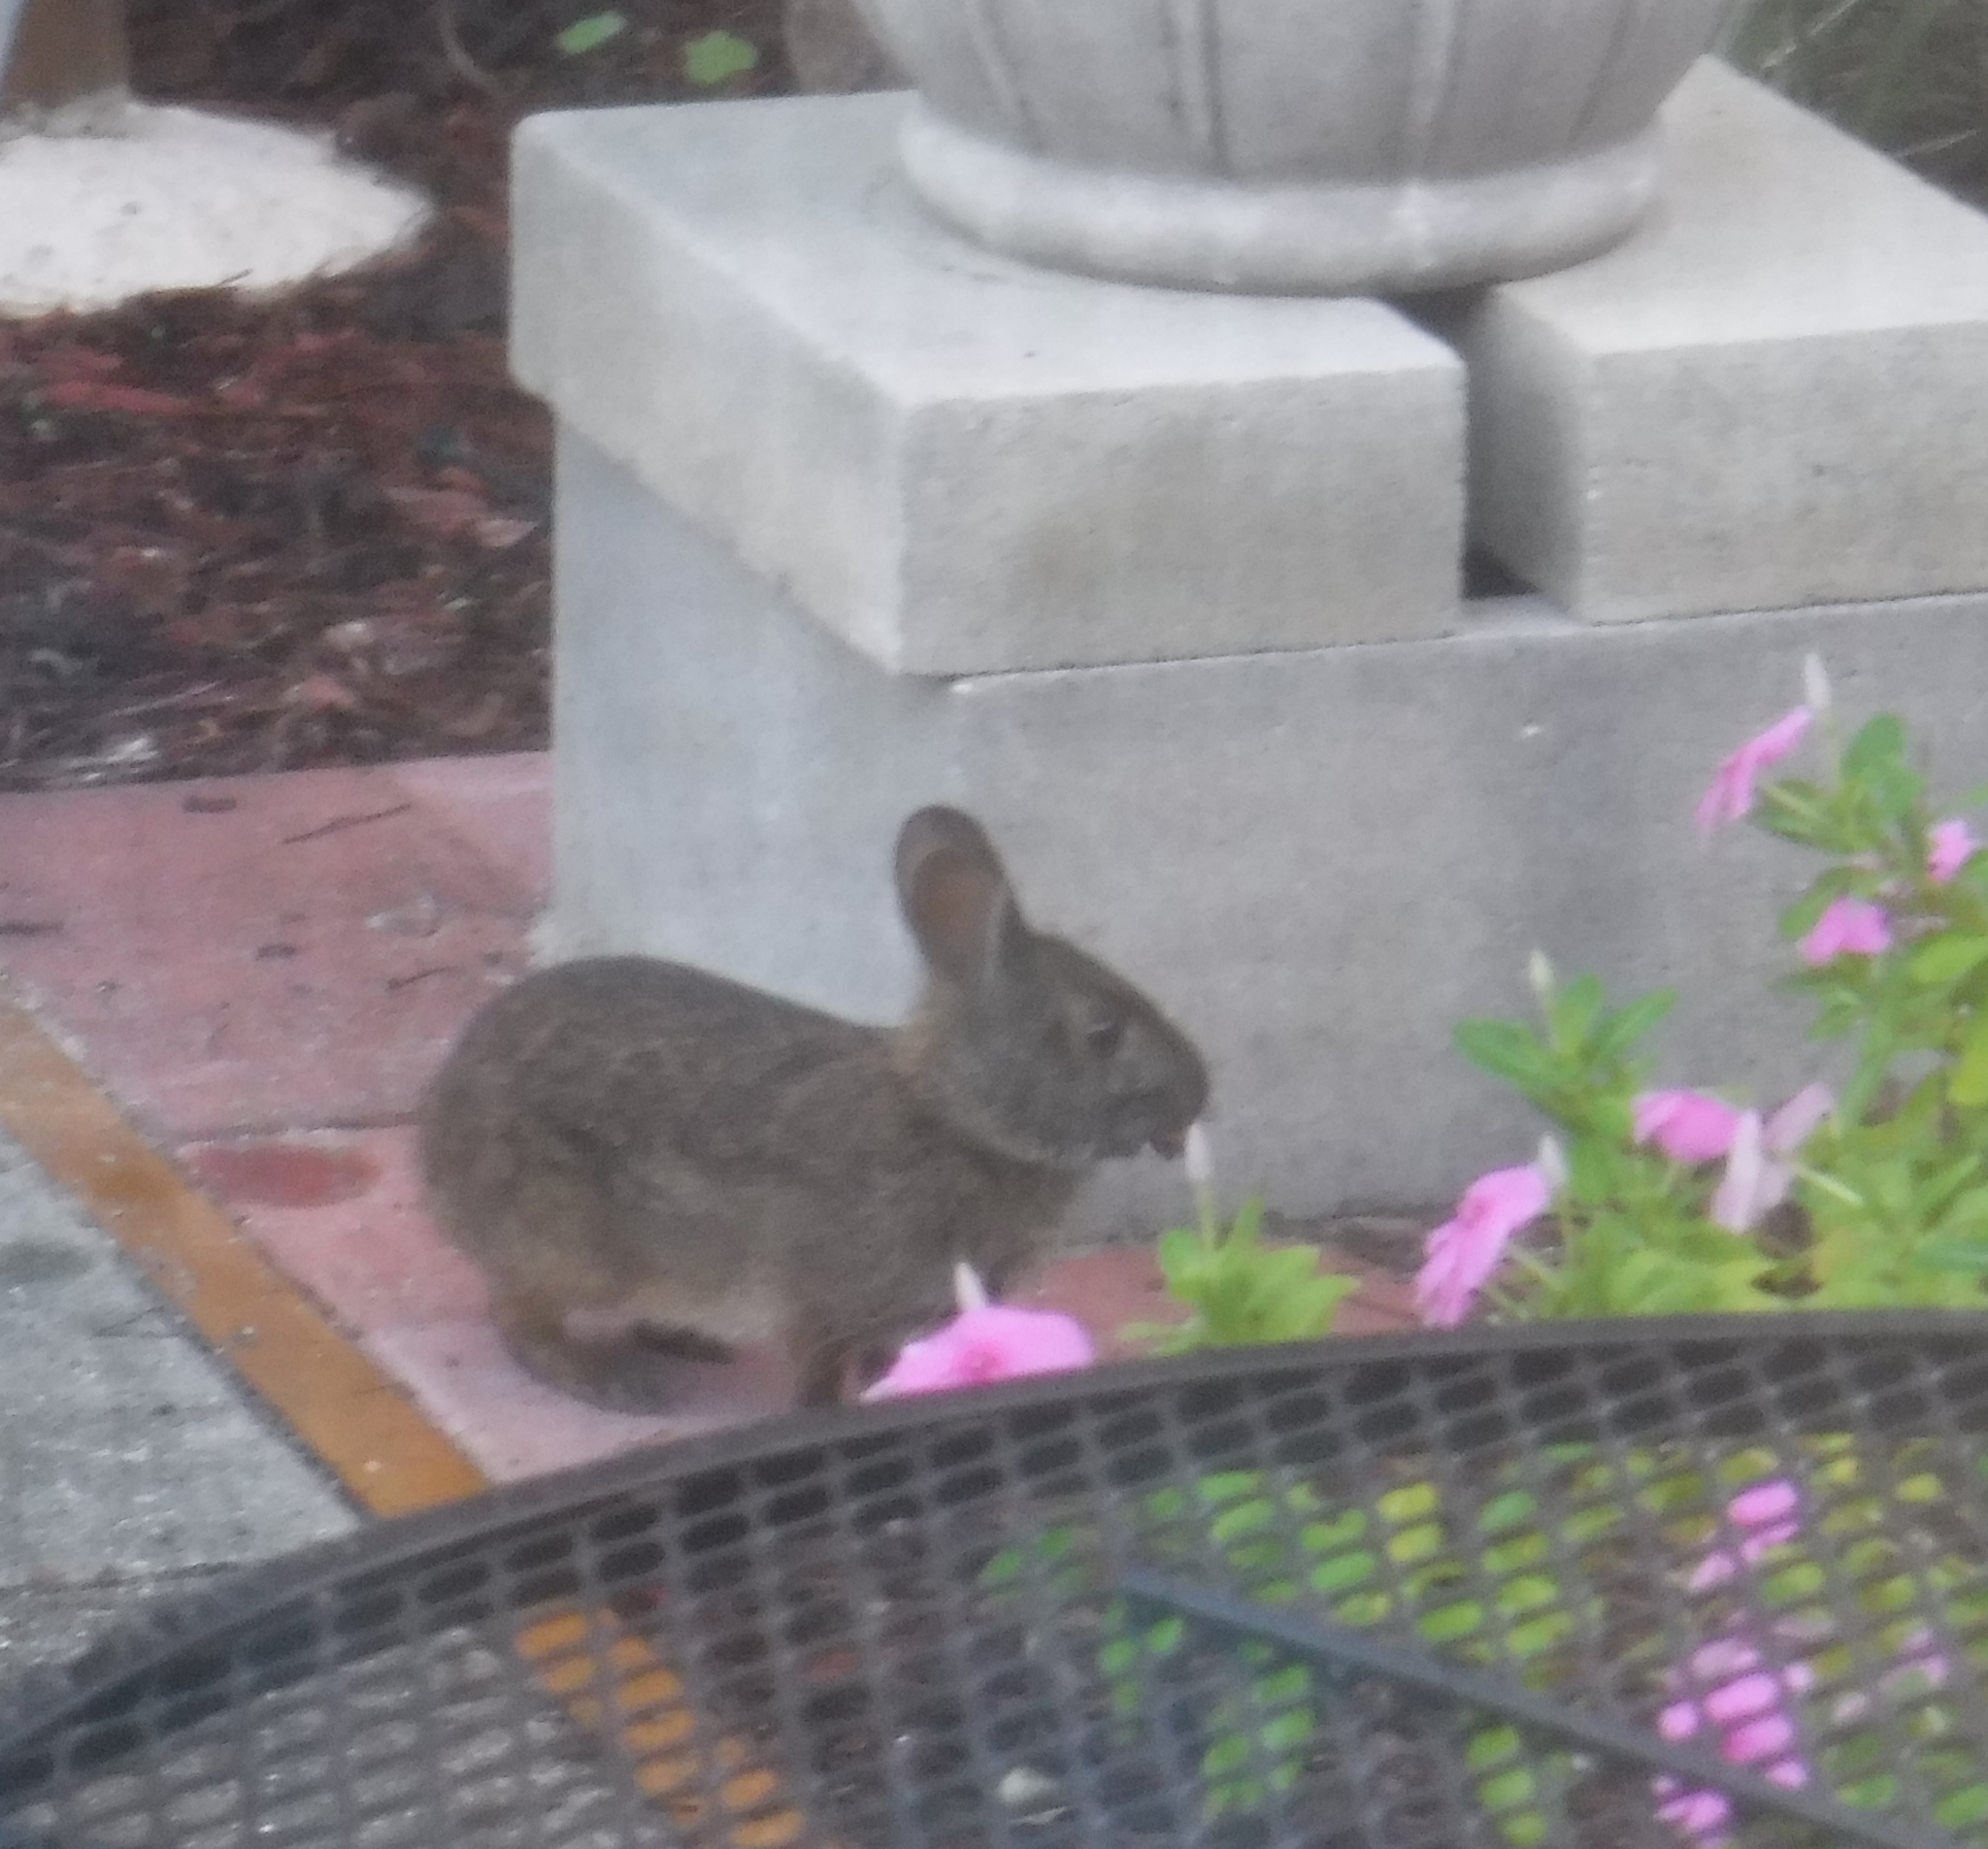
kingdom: Animalia
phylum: Chordata
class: Mammalia
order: Lagomorpha
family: Leporidae
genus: Sylvilagus
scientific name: Sylvilagus palustris
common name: Marsh rabbit
